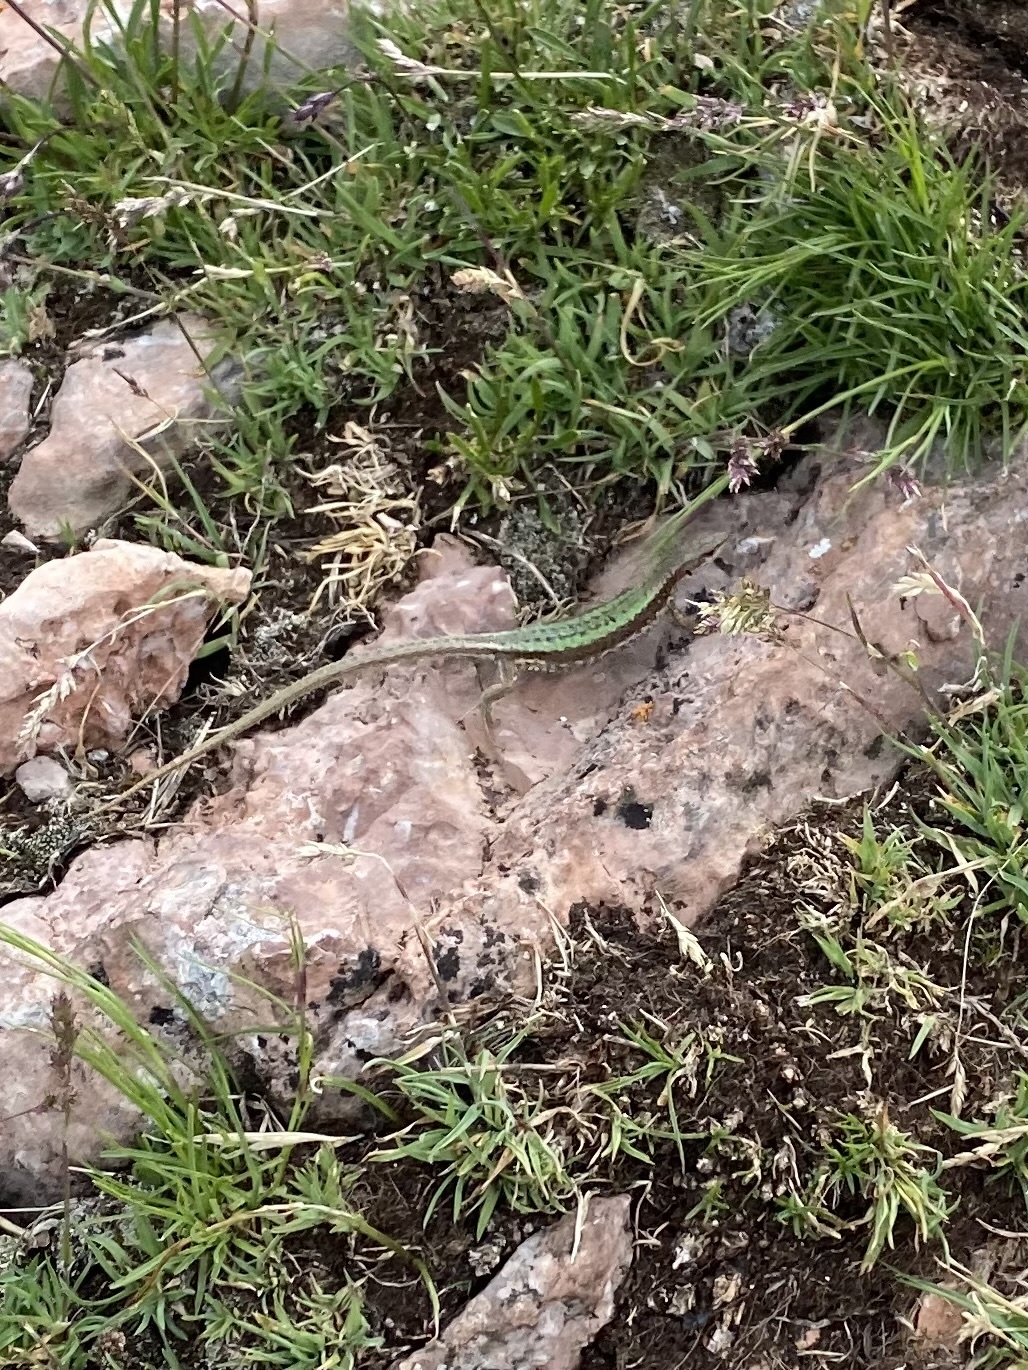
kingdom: Animalia
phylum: Chordata
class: Squamata
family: Lacertidae
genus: Darevskia
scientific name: Darevskia alpina
